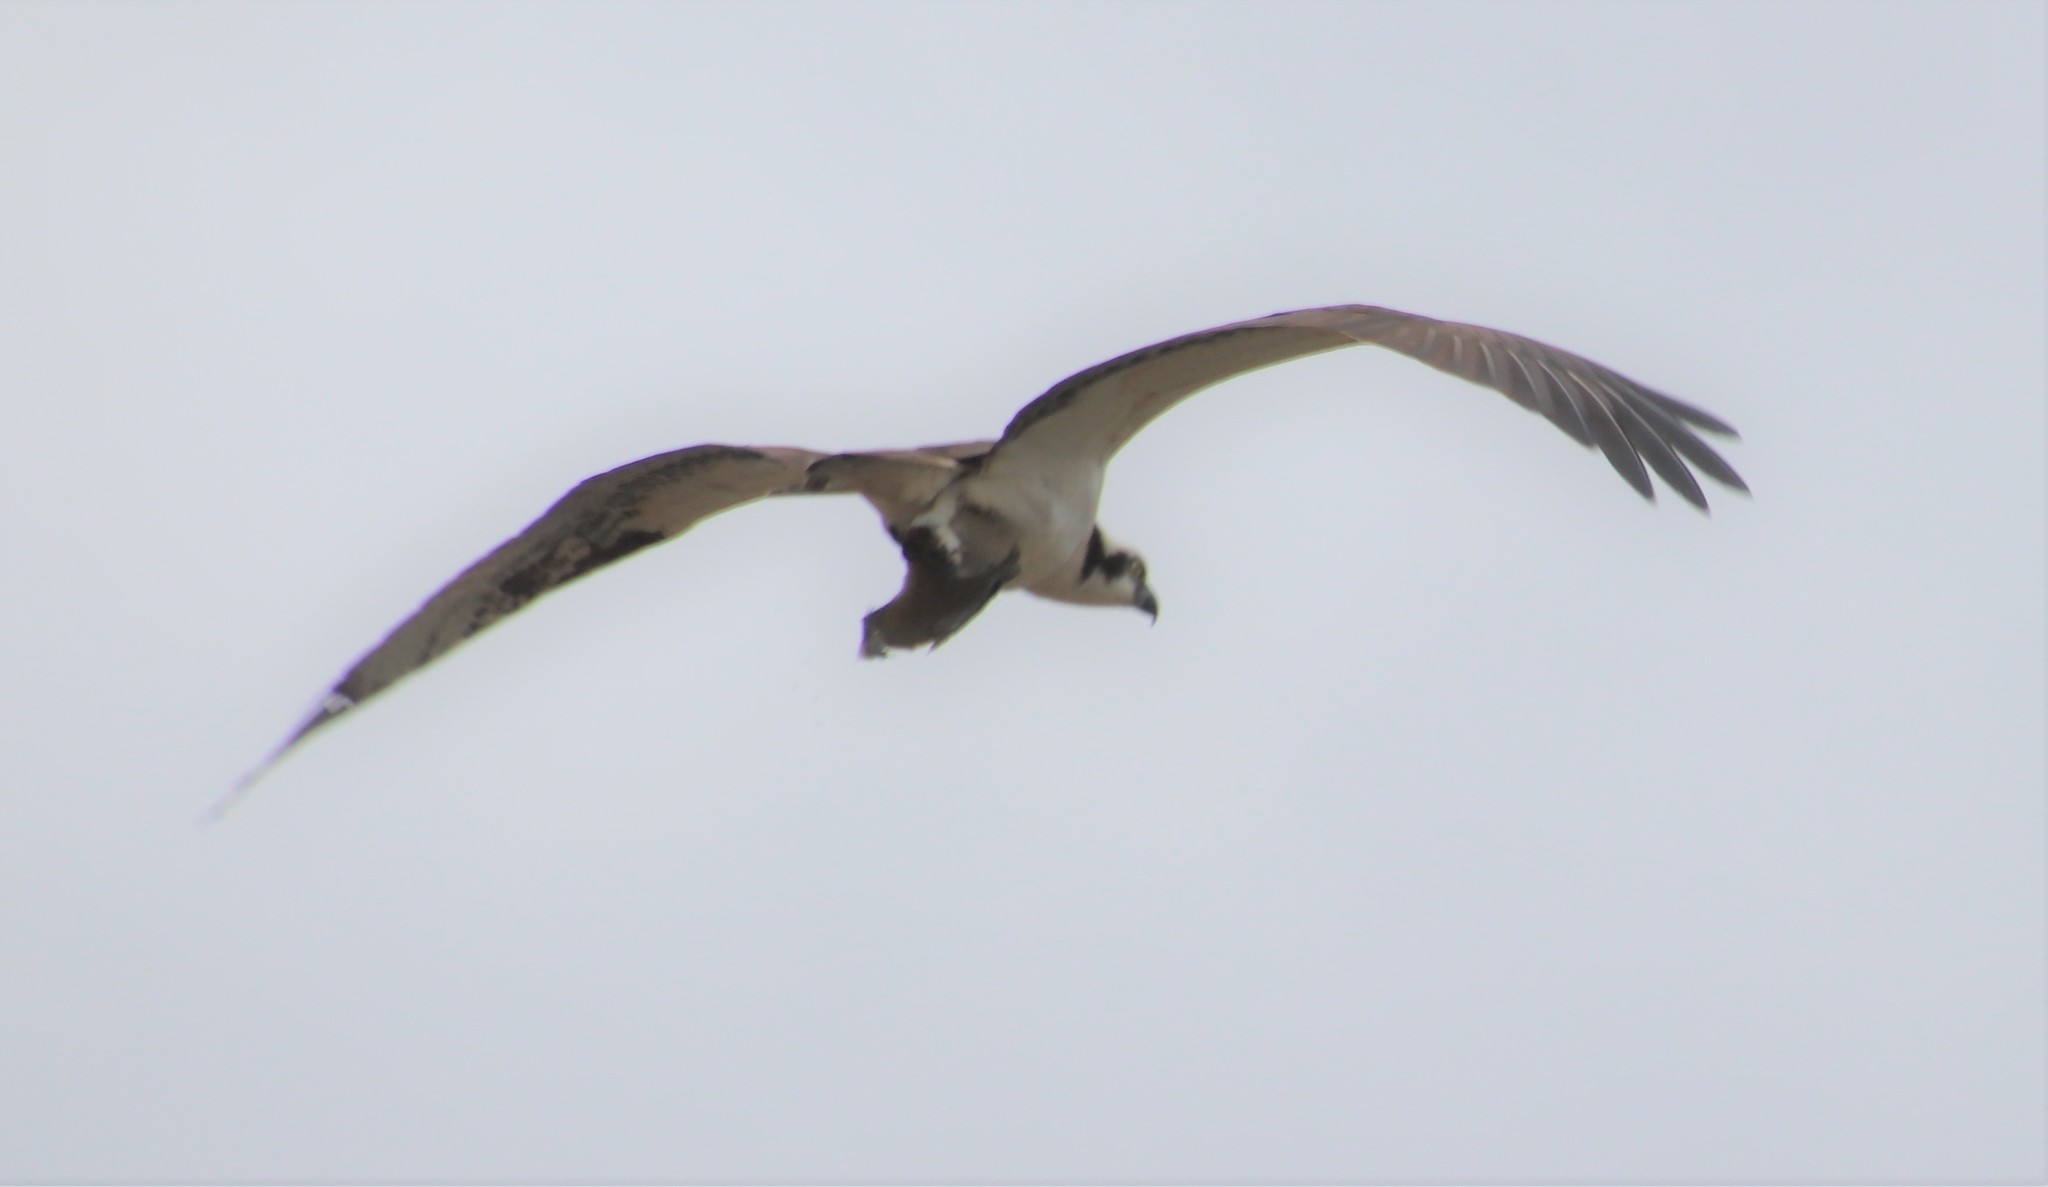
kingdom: Animalia
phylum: Chordata
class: Aves
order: Accipitriformes
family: Pandionidae
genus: Pandion
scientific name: Pandion haliaetus
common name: Osprey
